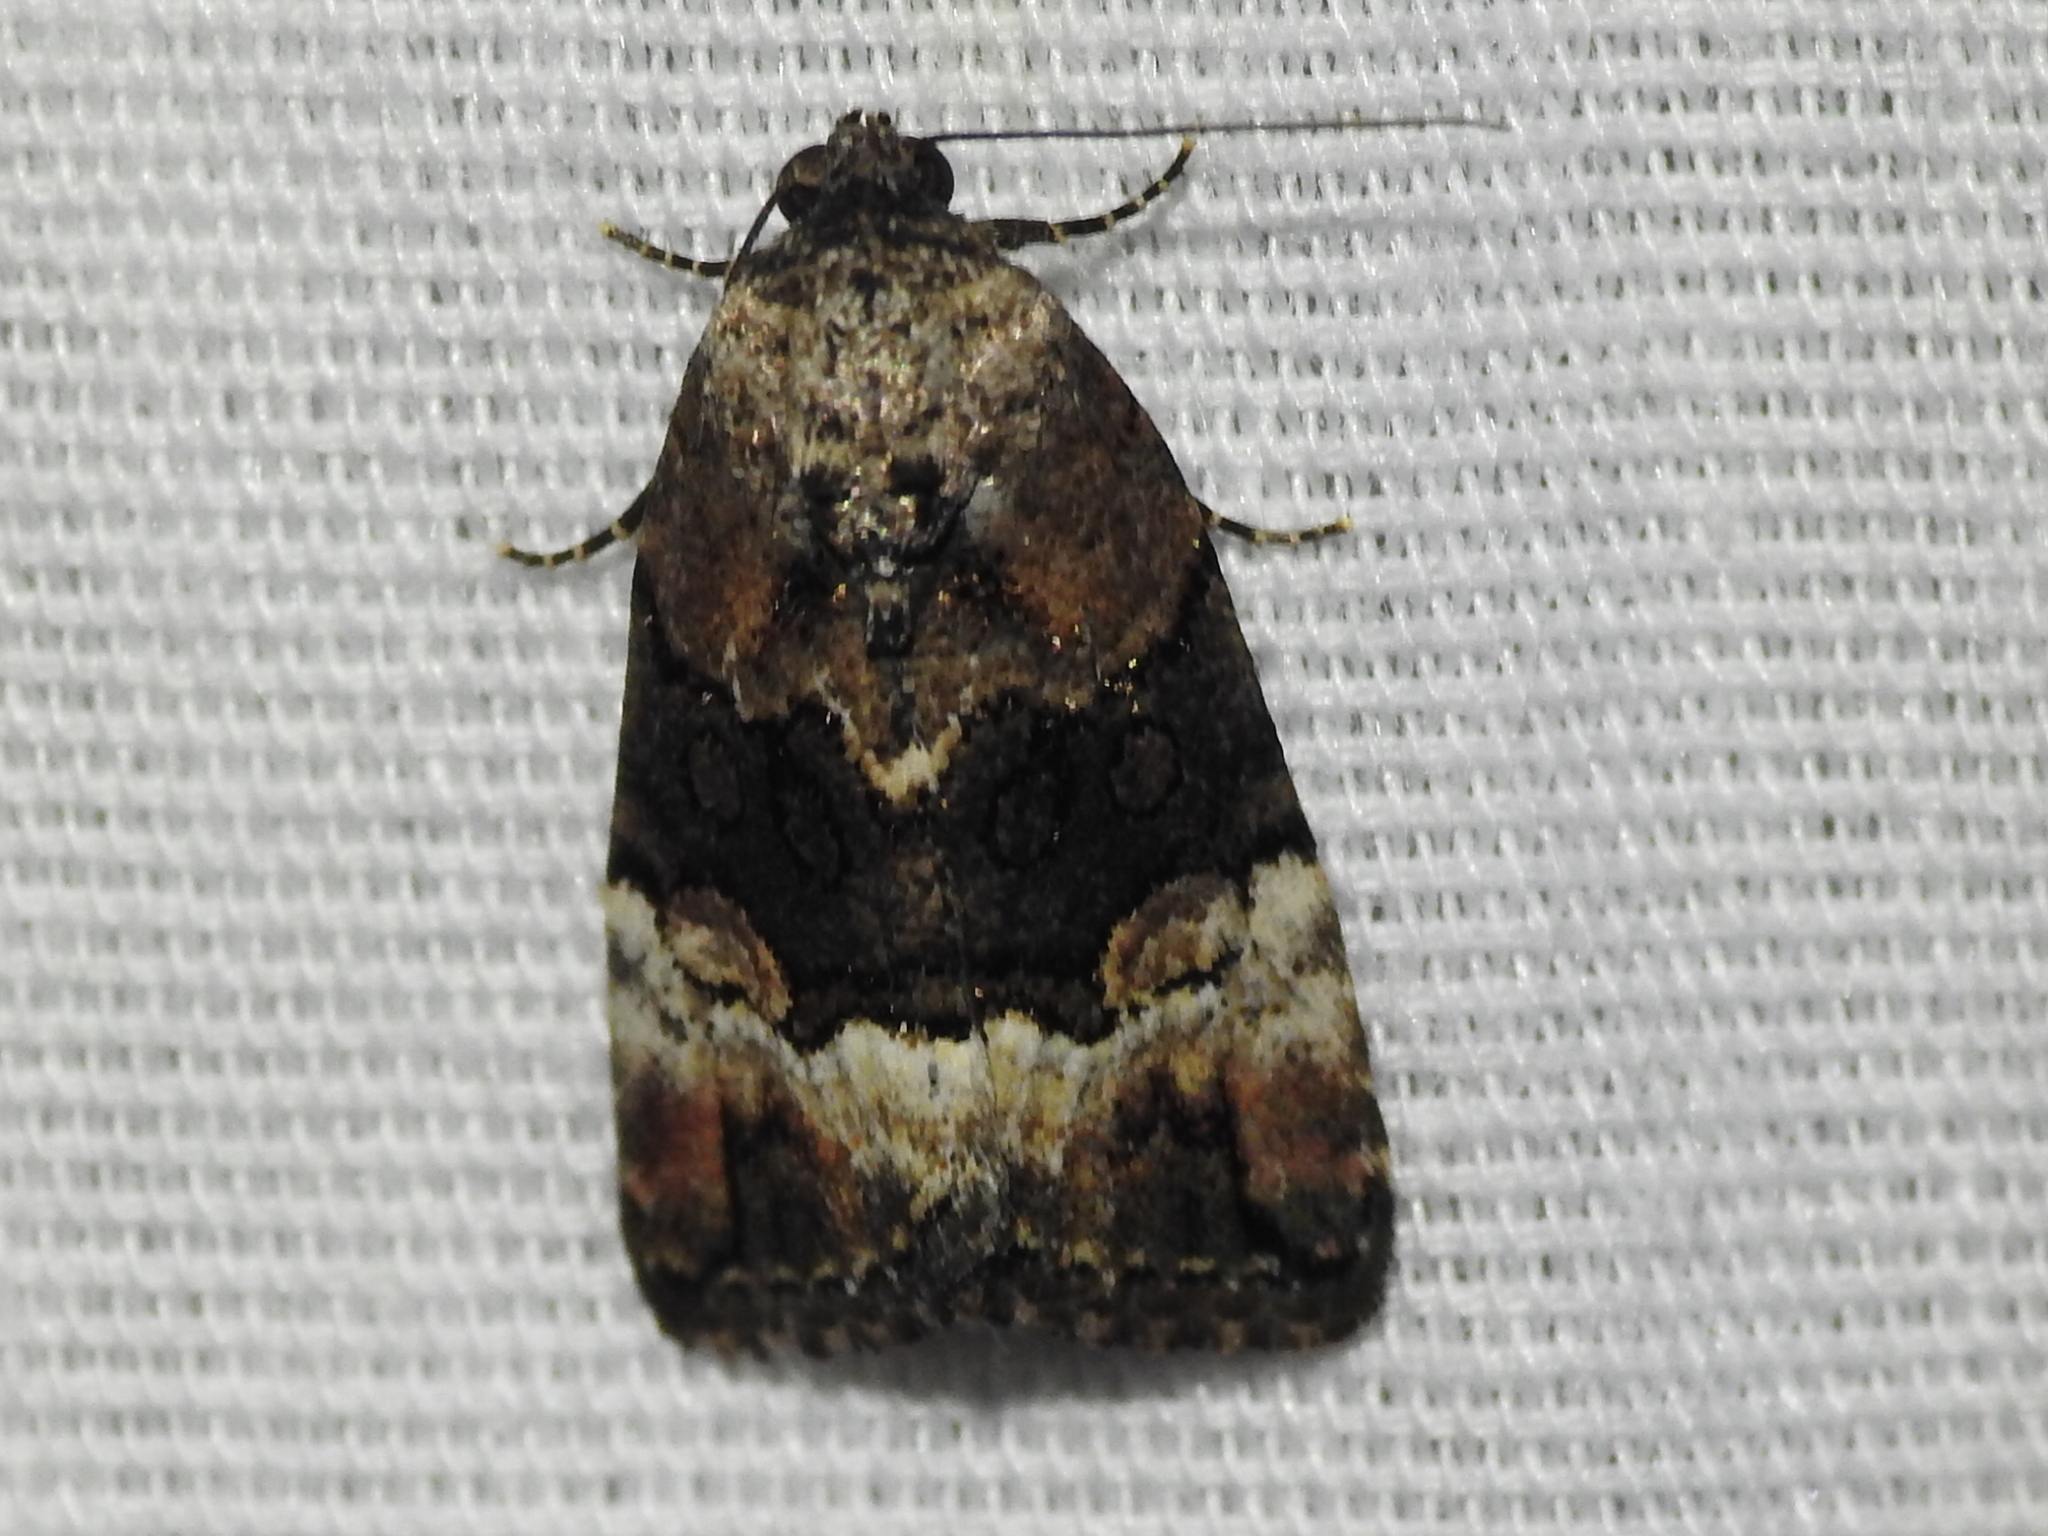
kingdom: Animalia
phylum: Arthropoda
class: Insecta
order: Lepidoptera
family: Noctuidae
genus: Elaphria
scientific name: Elaphria georgei
